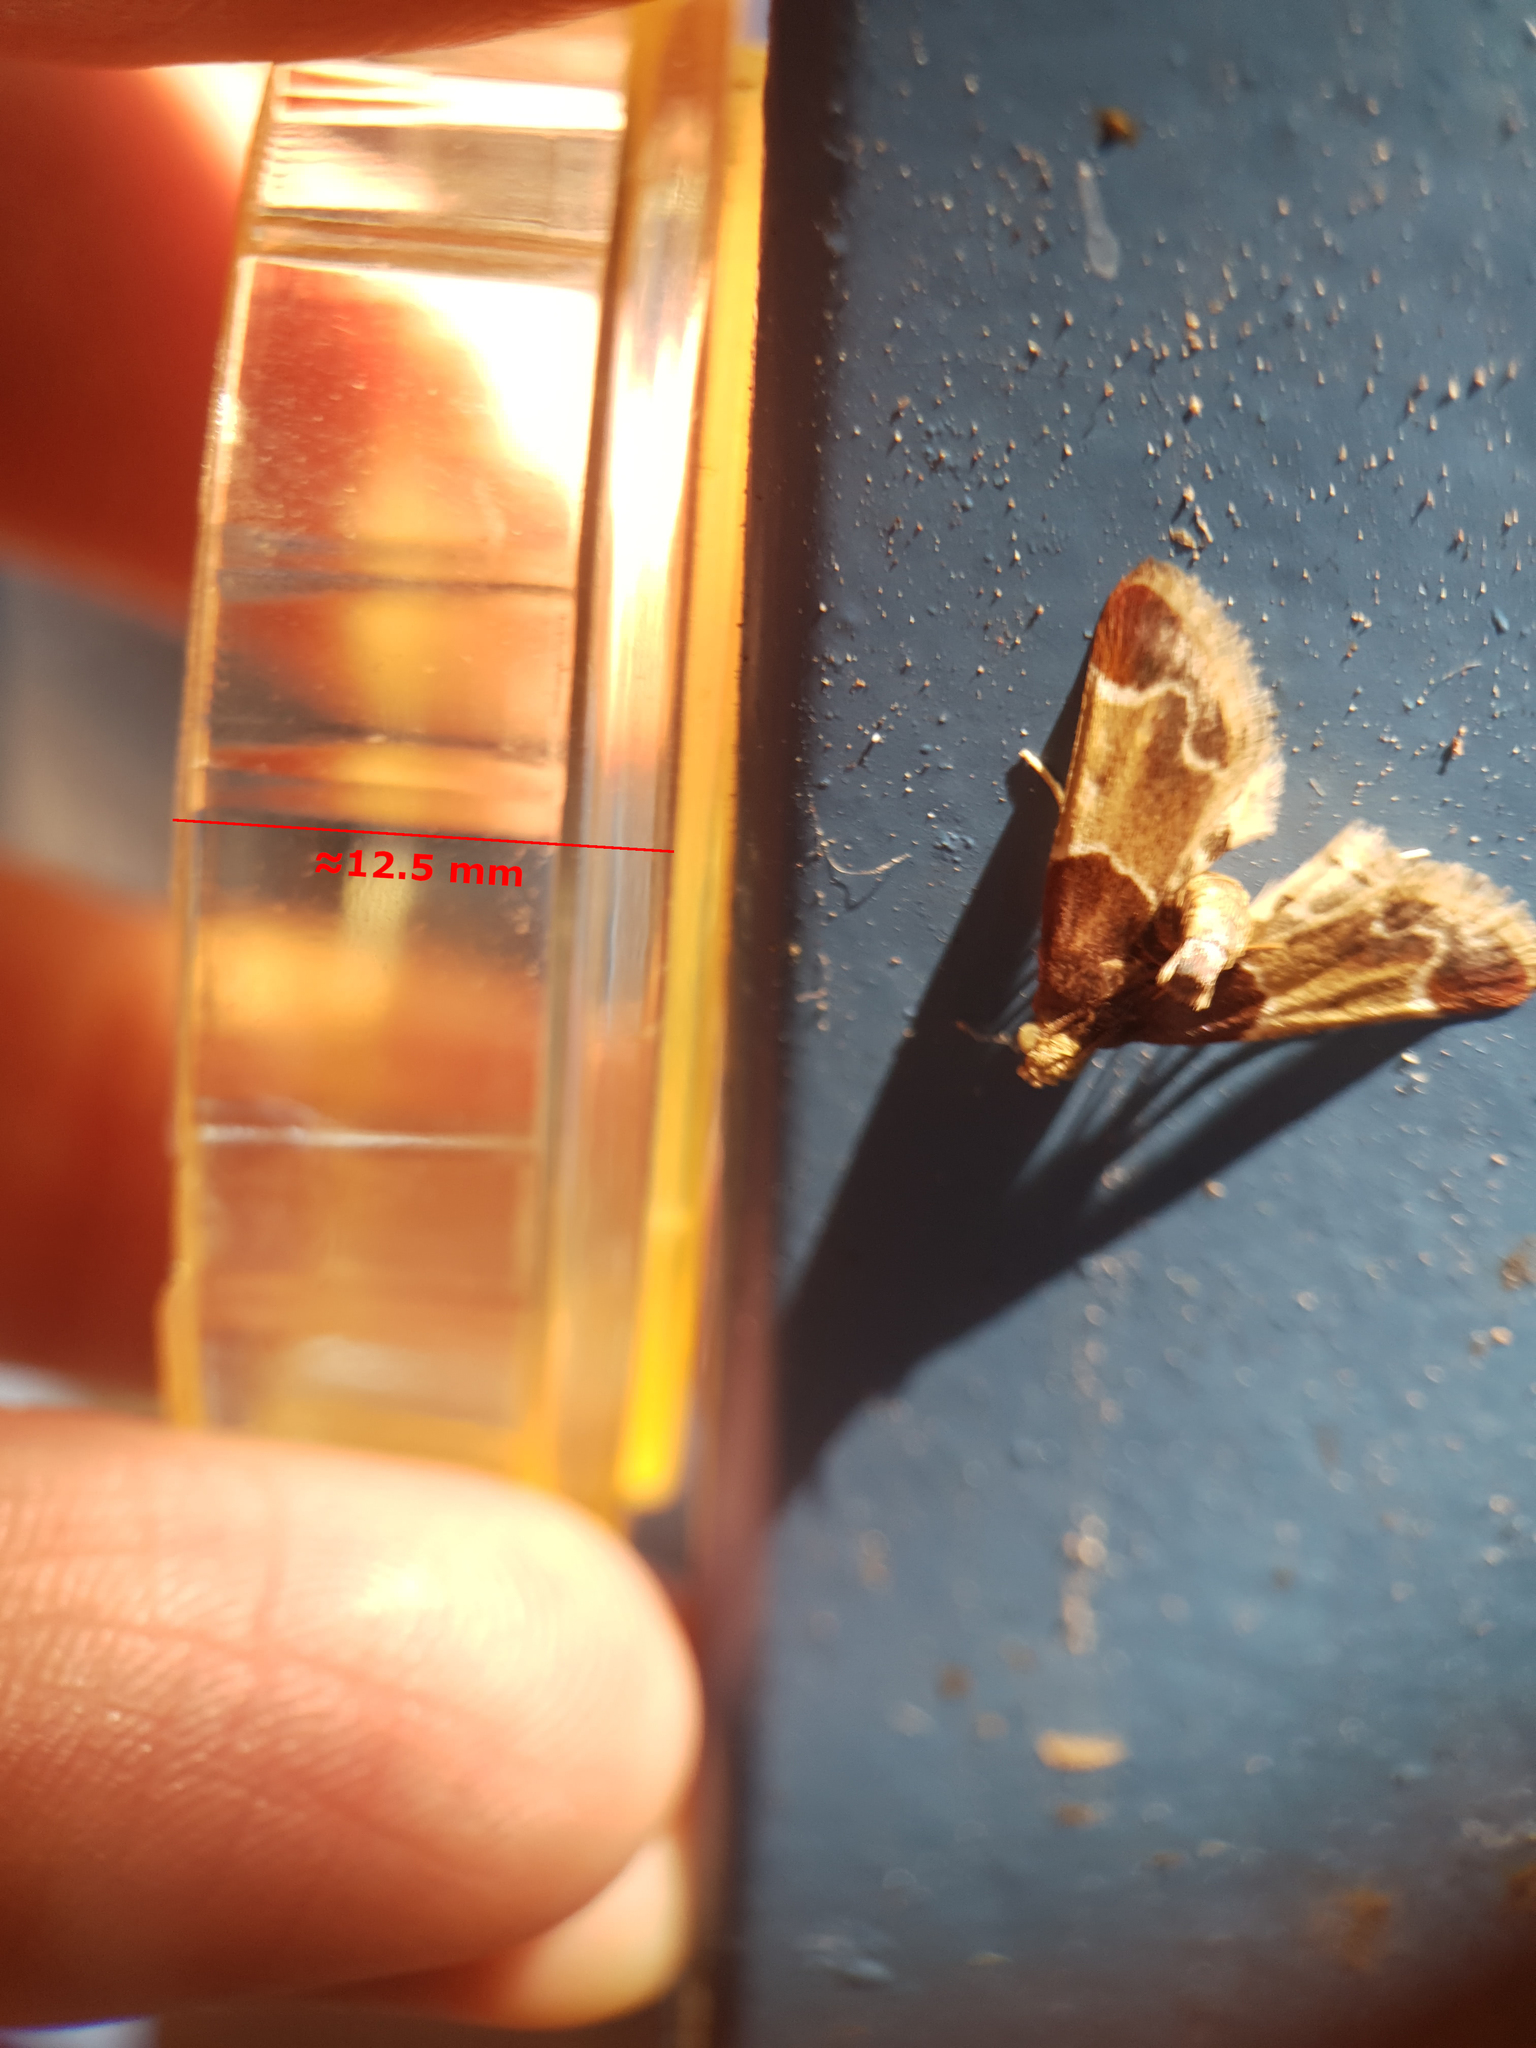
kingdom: Animalia
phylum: Arthropoda
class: Insecta
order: Lepidoptera
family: Pyralidae
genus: Pyralis
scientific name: Pyralis farinalis
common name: Meal moth
